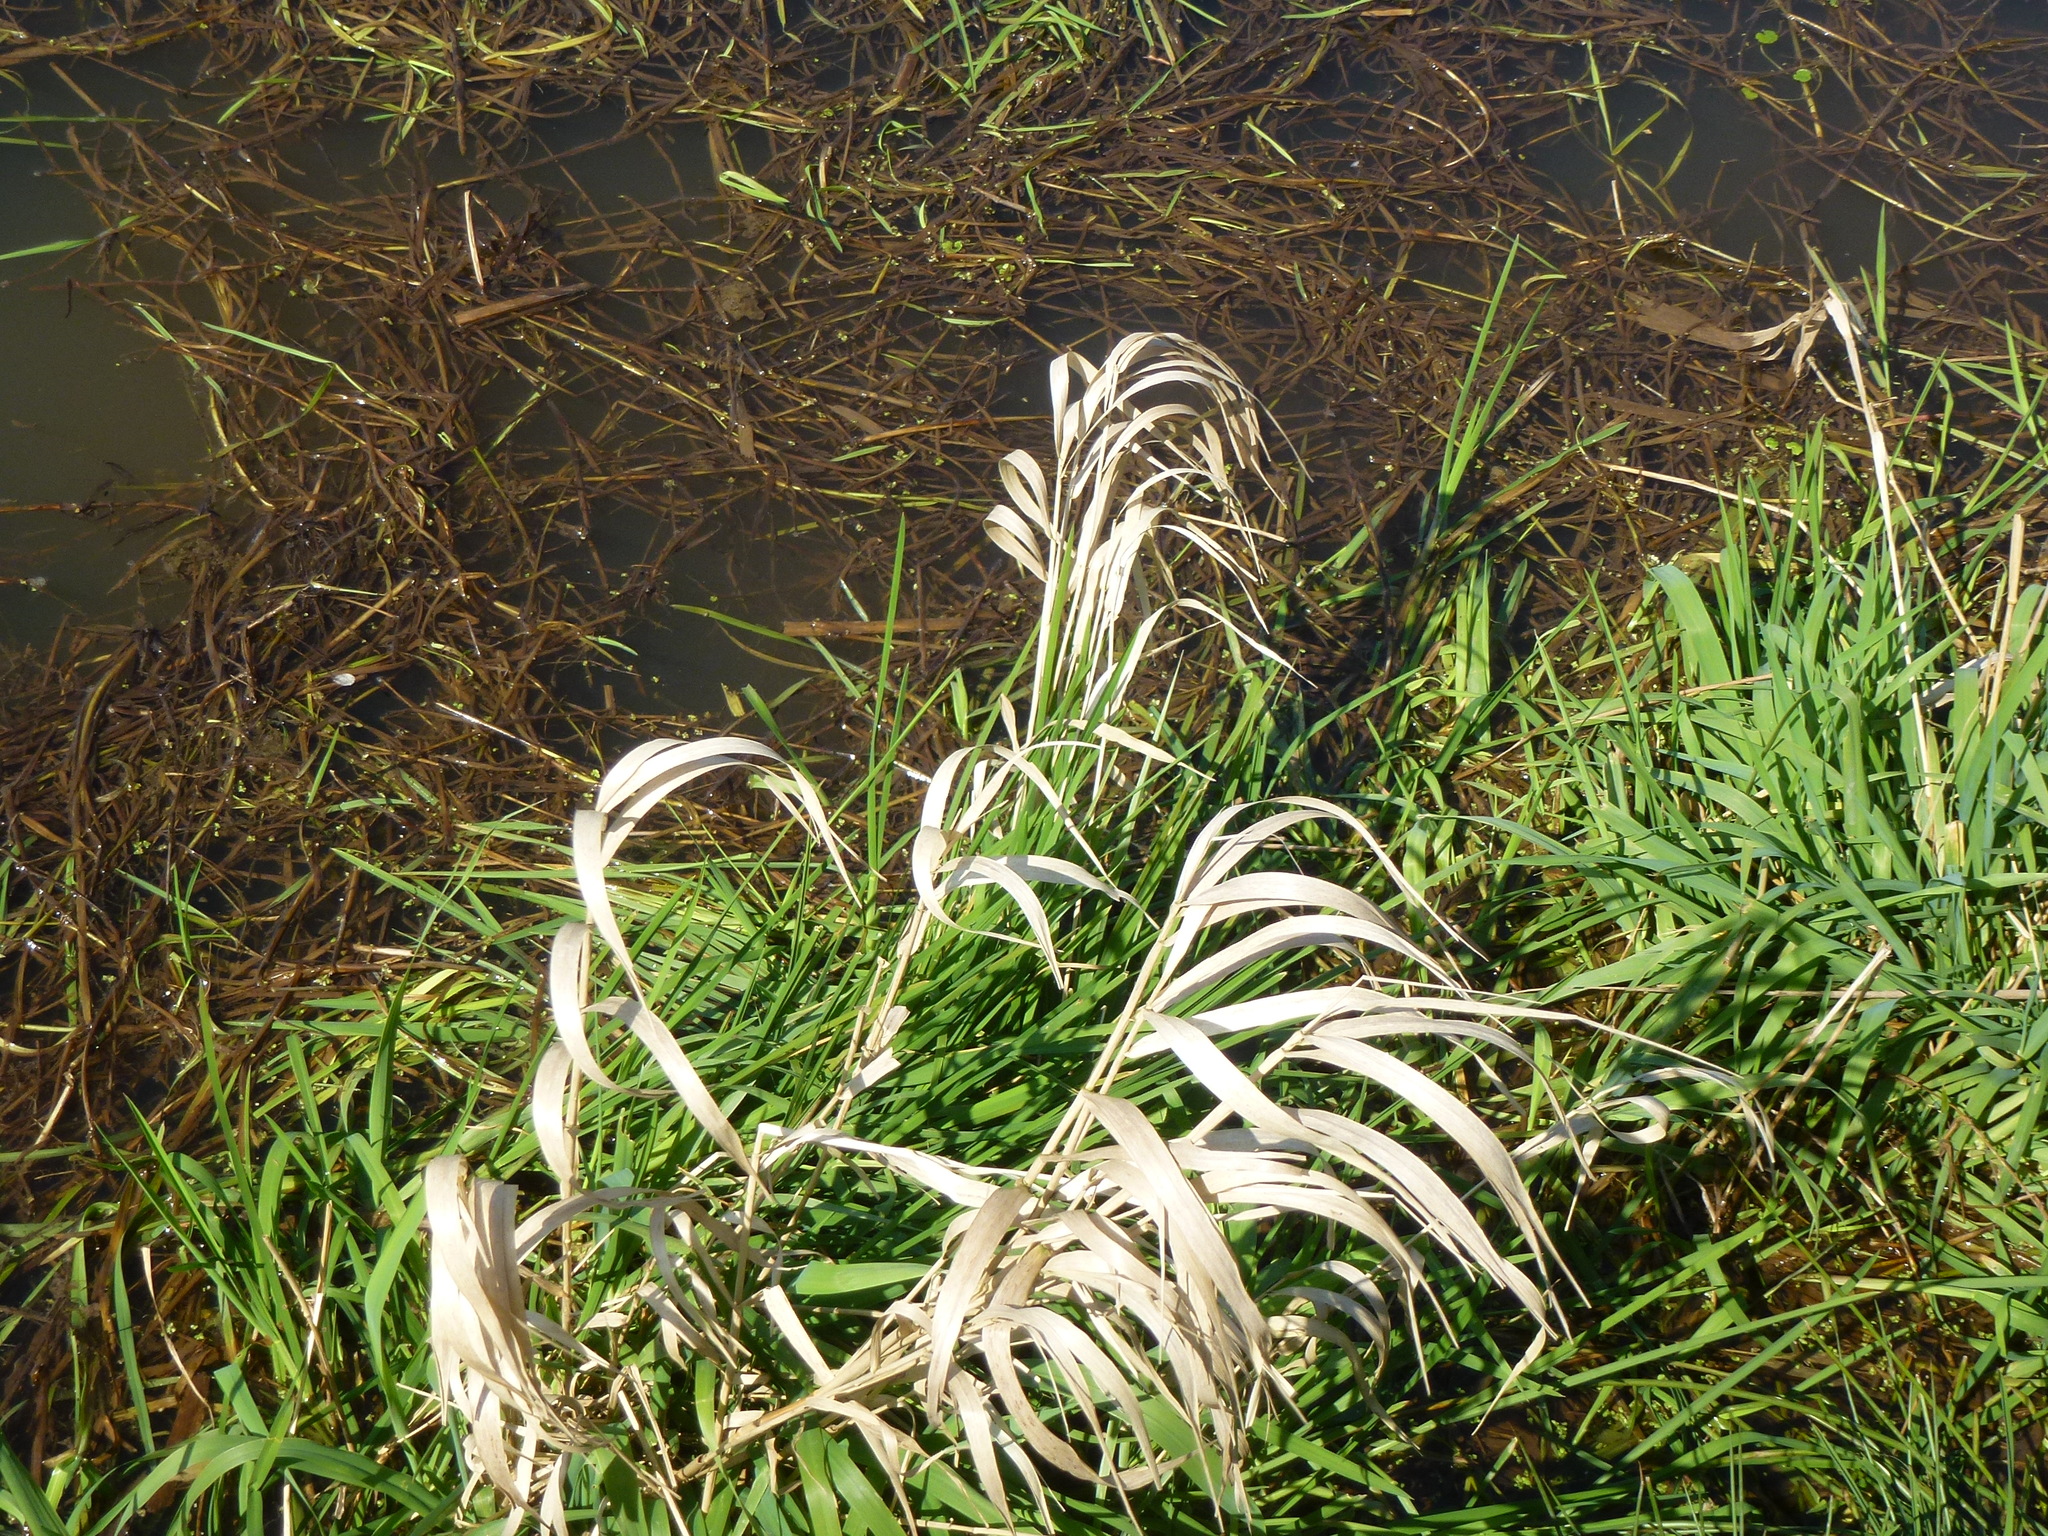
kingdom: Plantae
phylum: Tracheophyta
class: Liliopsida
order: Poales
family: Poaceae
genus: Phalaris
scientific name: Phalaris arundinacea
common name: Reed canary-grass
